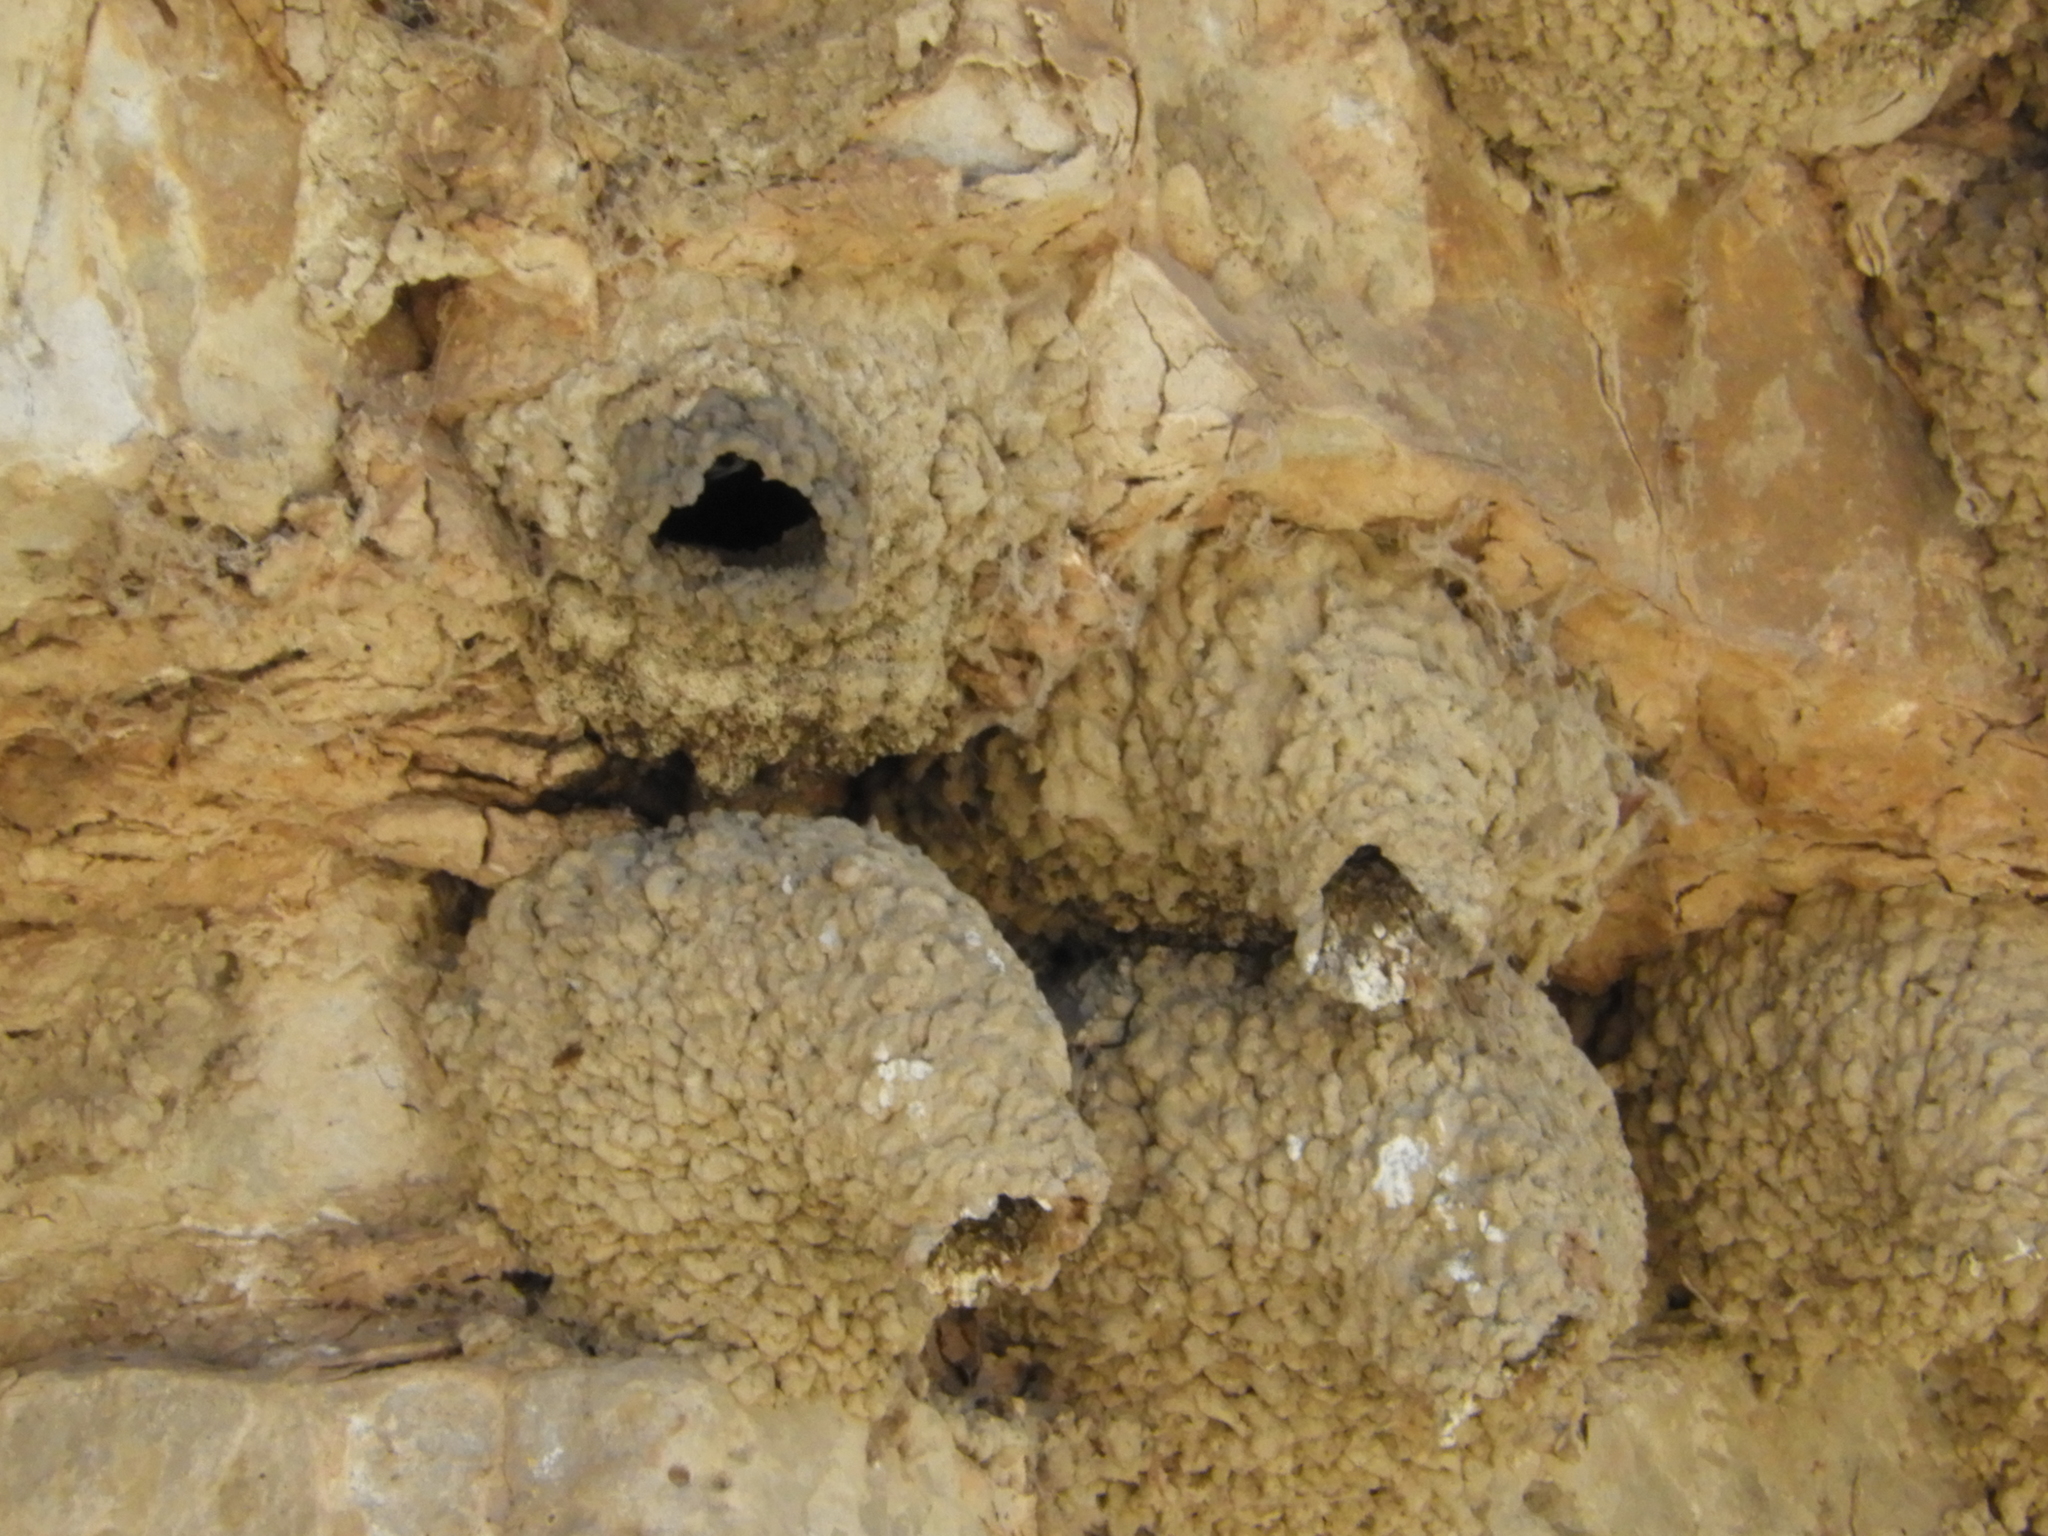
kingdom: Animalia
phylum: Chordata
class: Aves
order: Passeriformes
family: Hirundinidae
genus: Petrochelidon
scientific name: Petrochelidon pyrrhonota
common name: American cliff swallow
